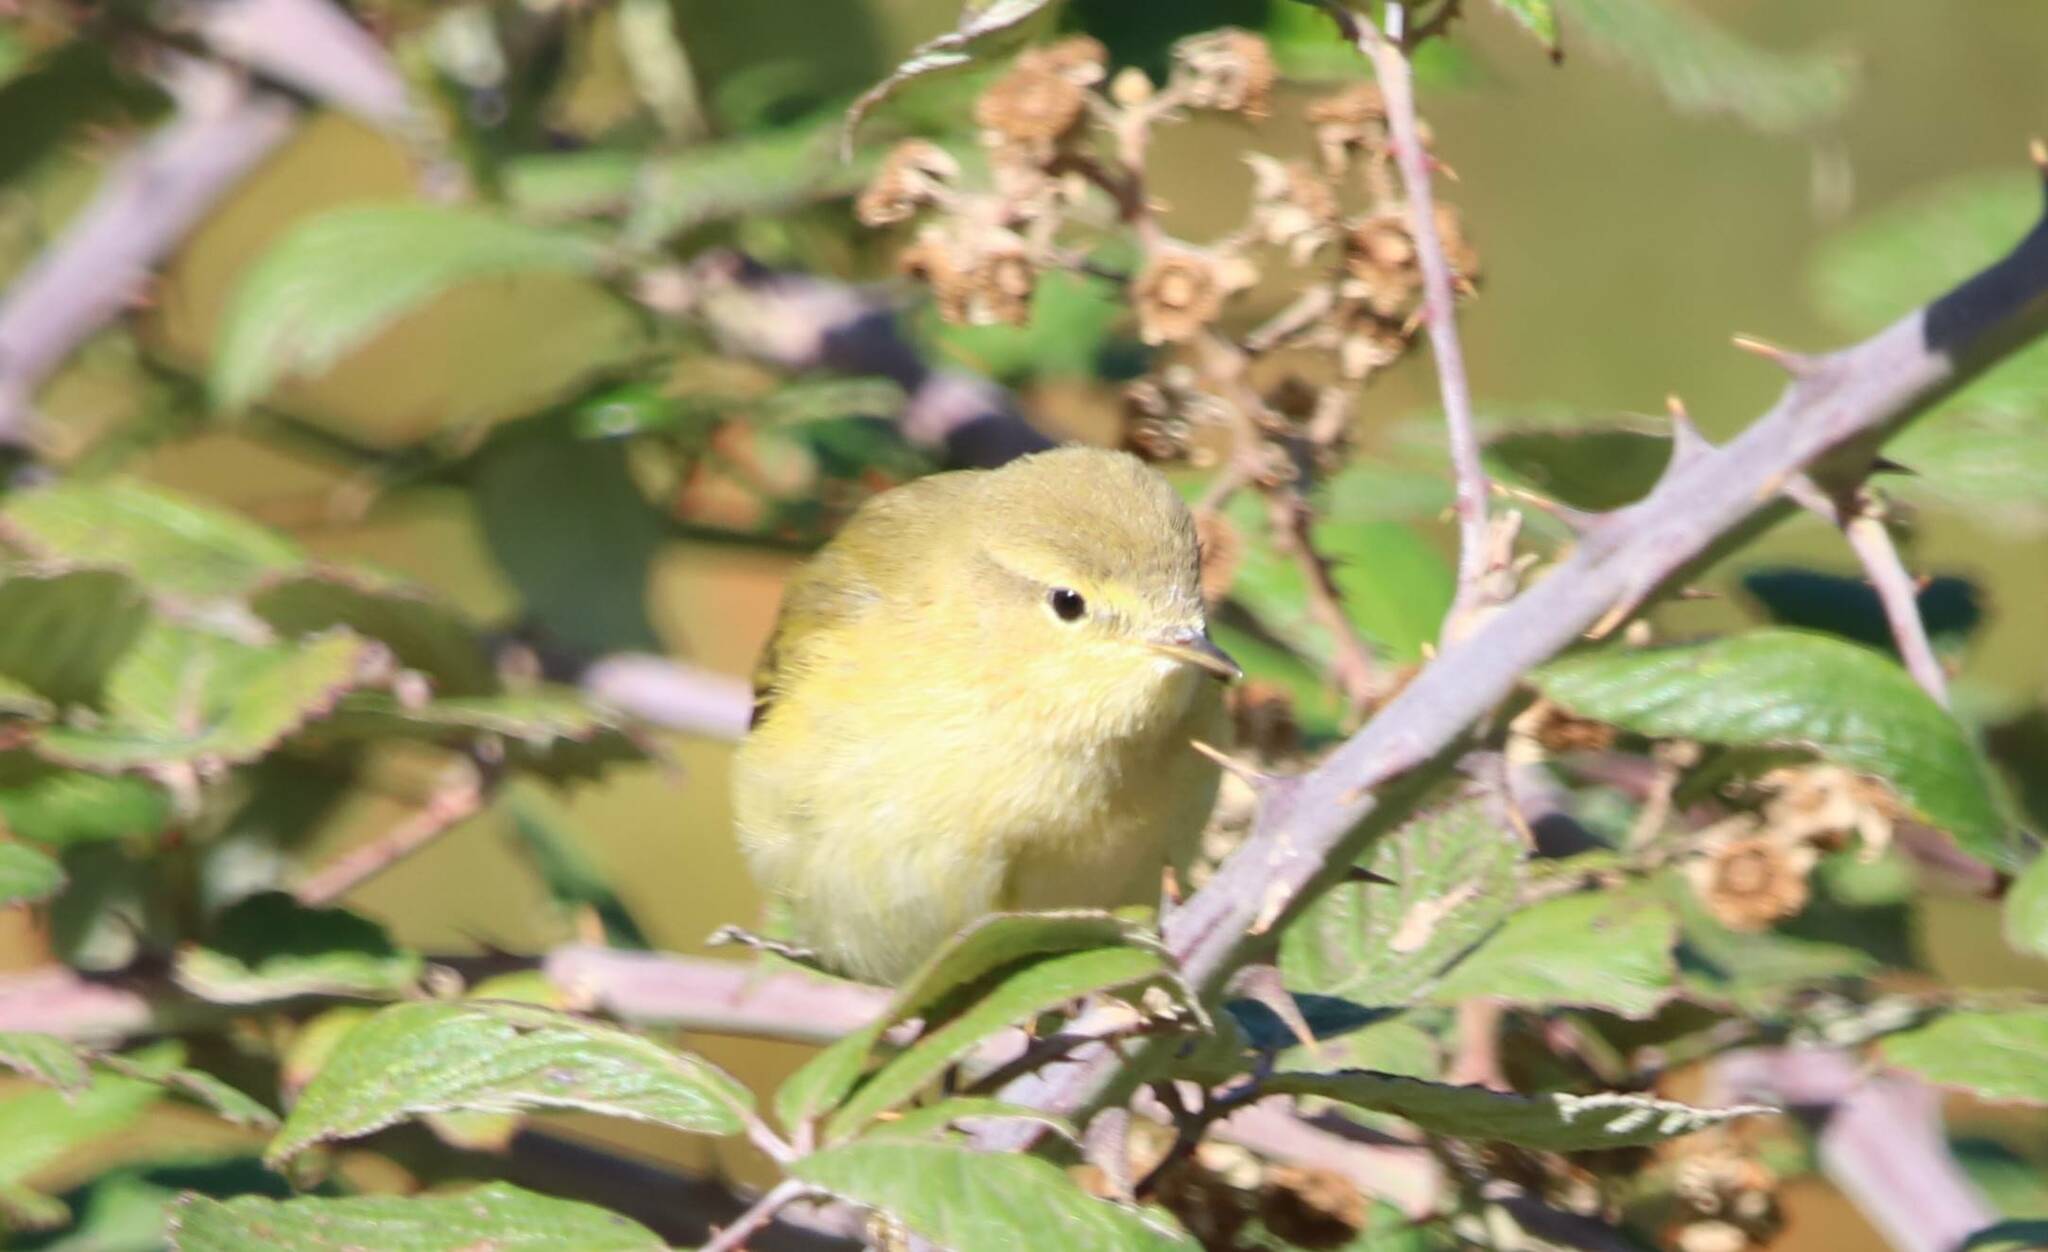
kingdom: Animalia
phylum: Chordata
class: Aves
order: Passeriformes
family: Phylloscopidae
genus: Phylloscopus
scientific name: Phylloscopus collybita
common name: Common chiffchaff
